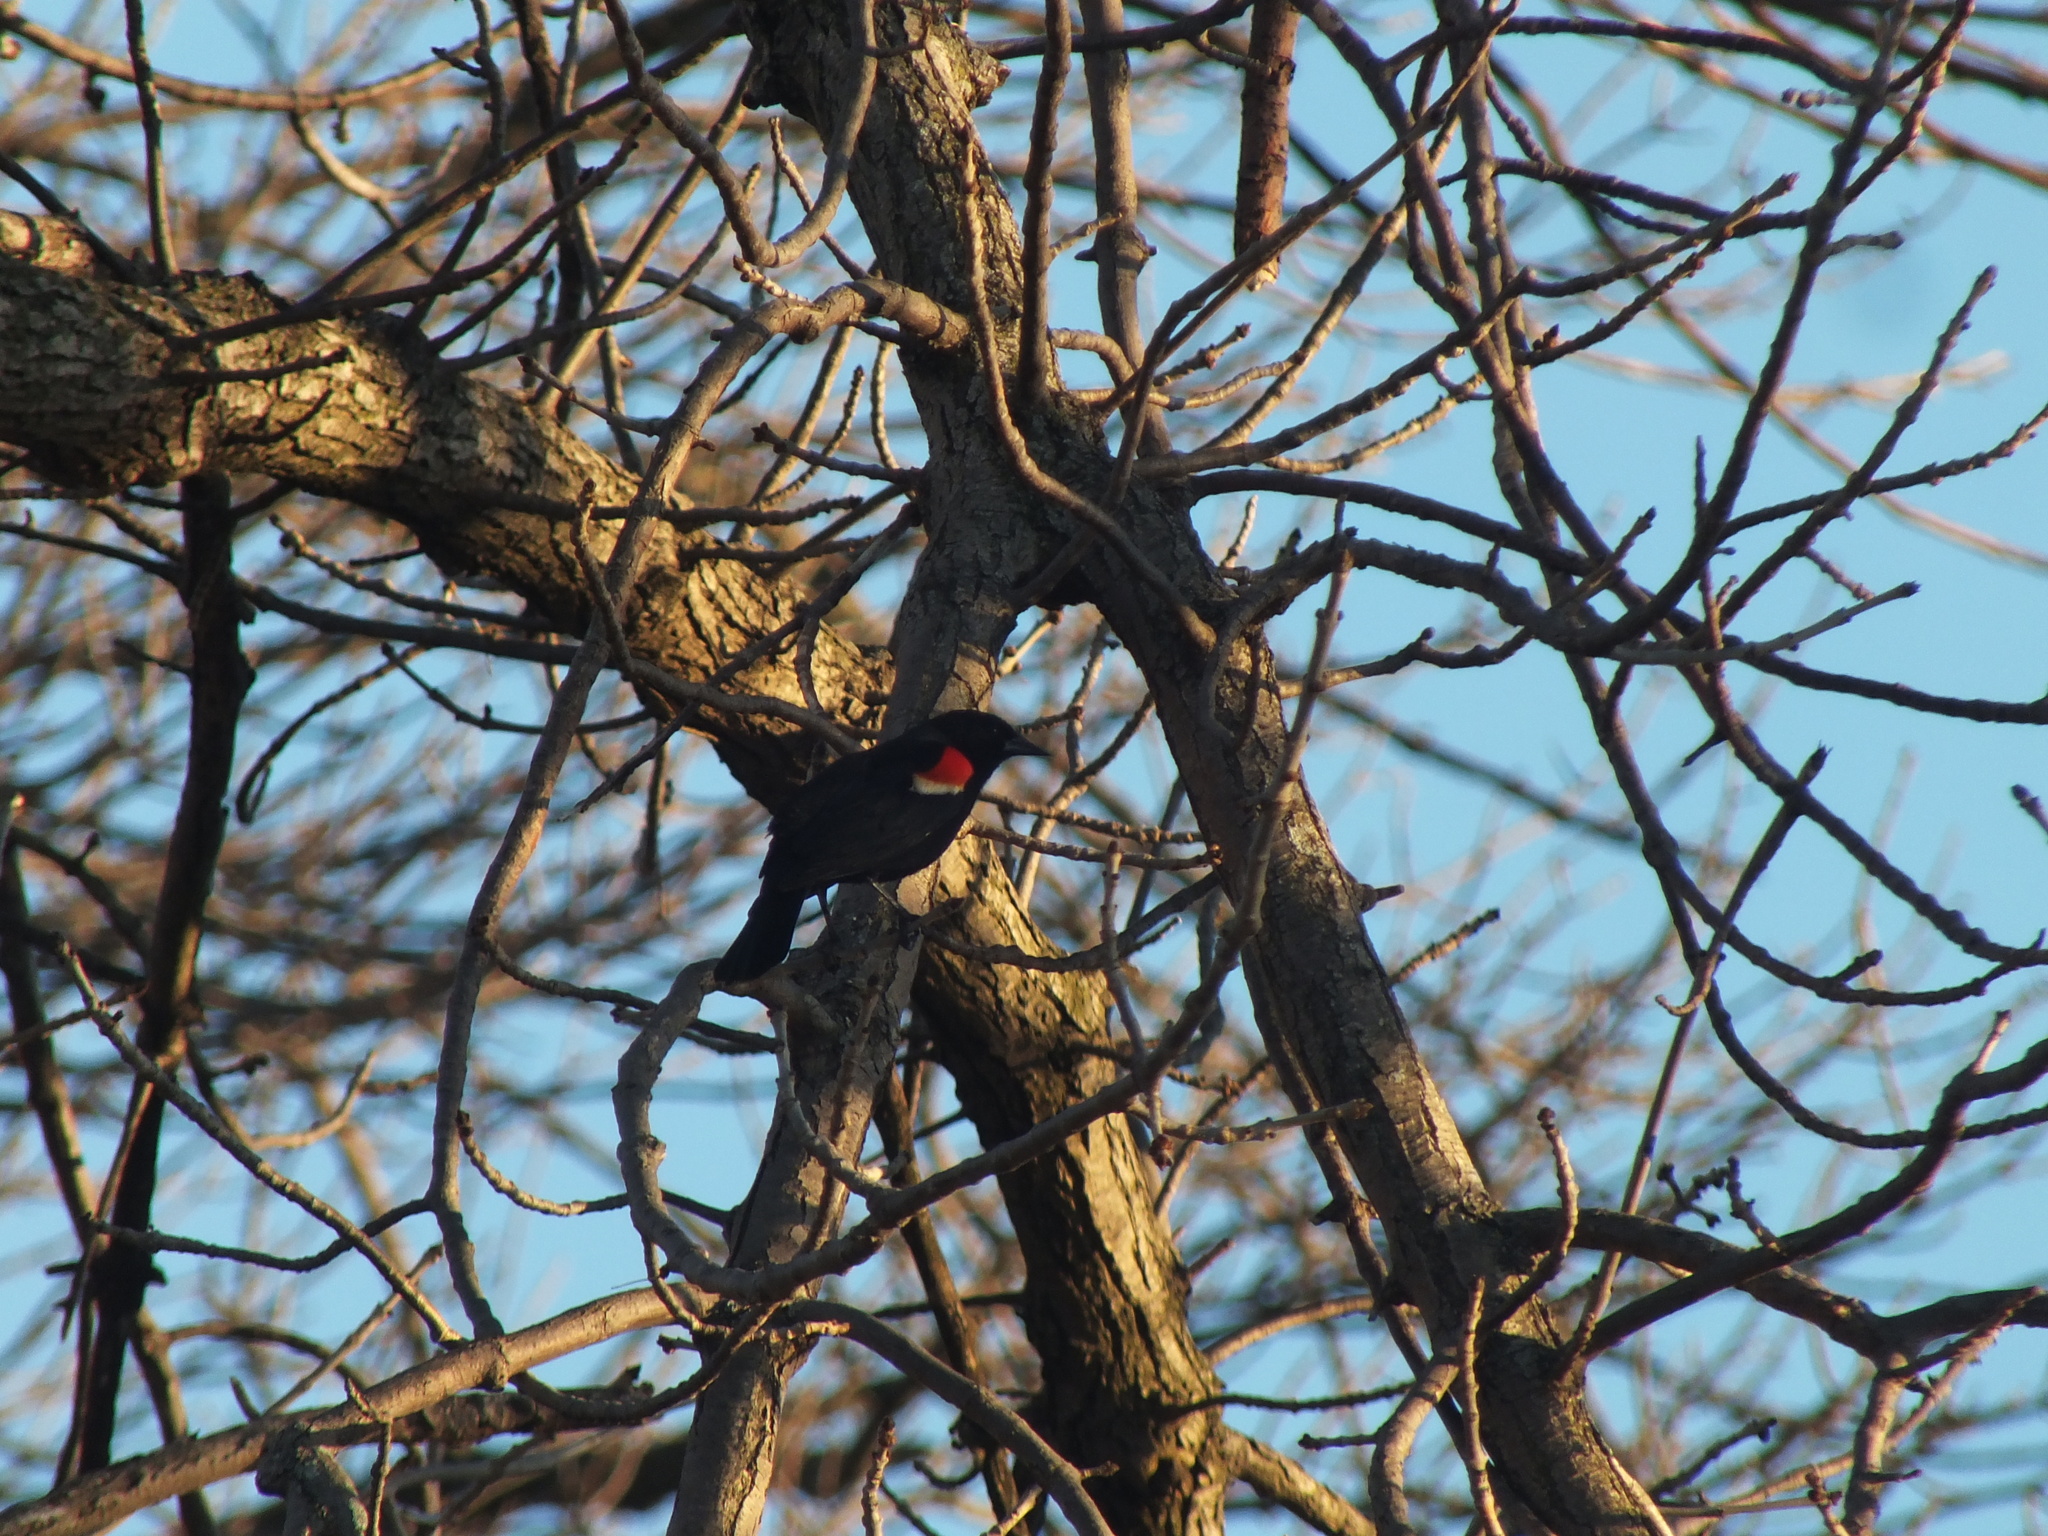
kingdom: Animalia
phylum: Chordata
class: Aves
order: Passeriformes
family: Icteridae
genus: Agelaius
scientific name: Agelaius phoeniceus
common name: Red-winged blackbird
